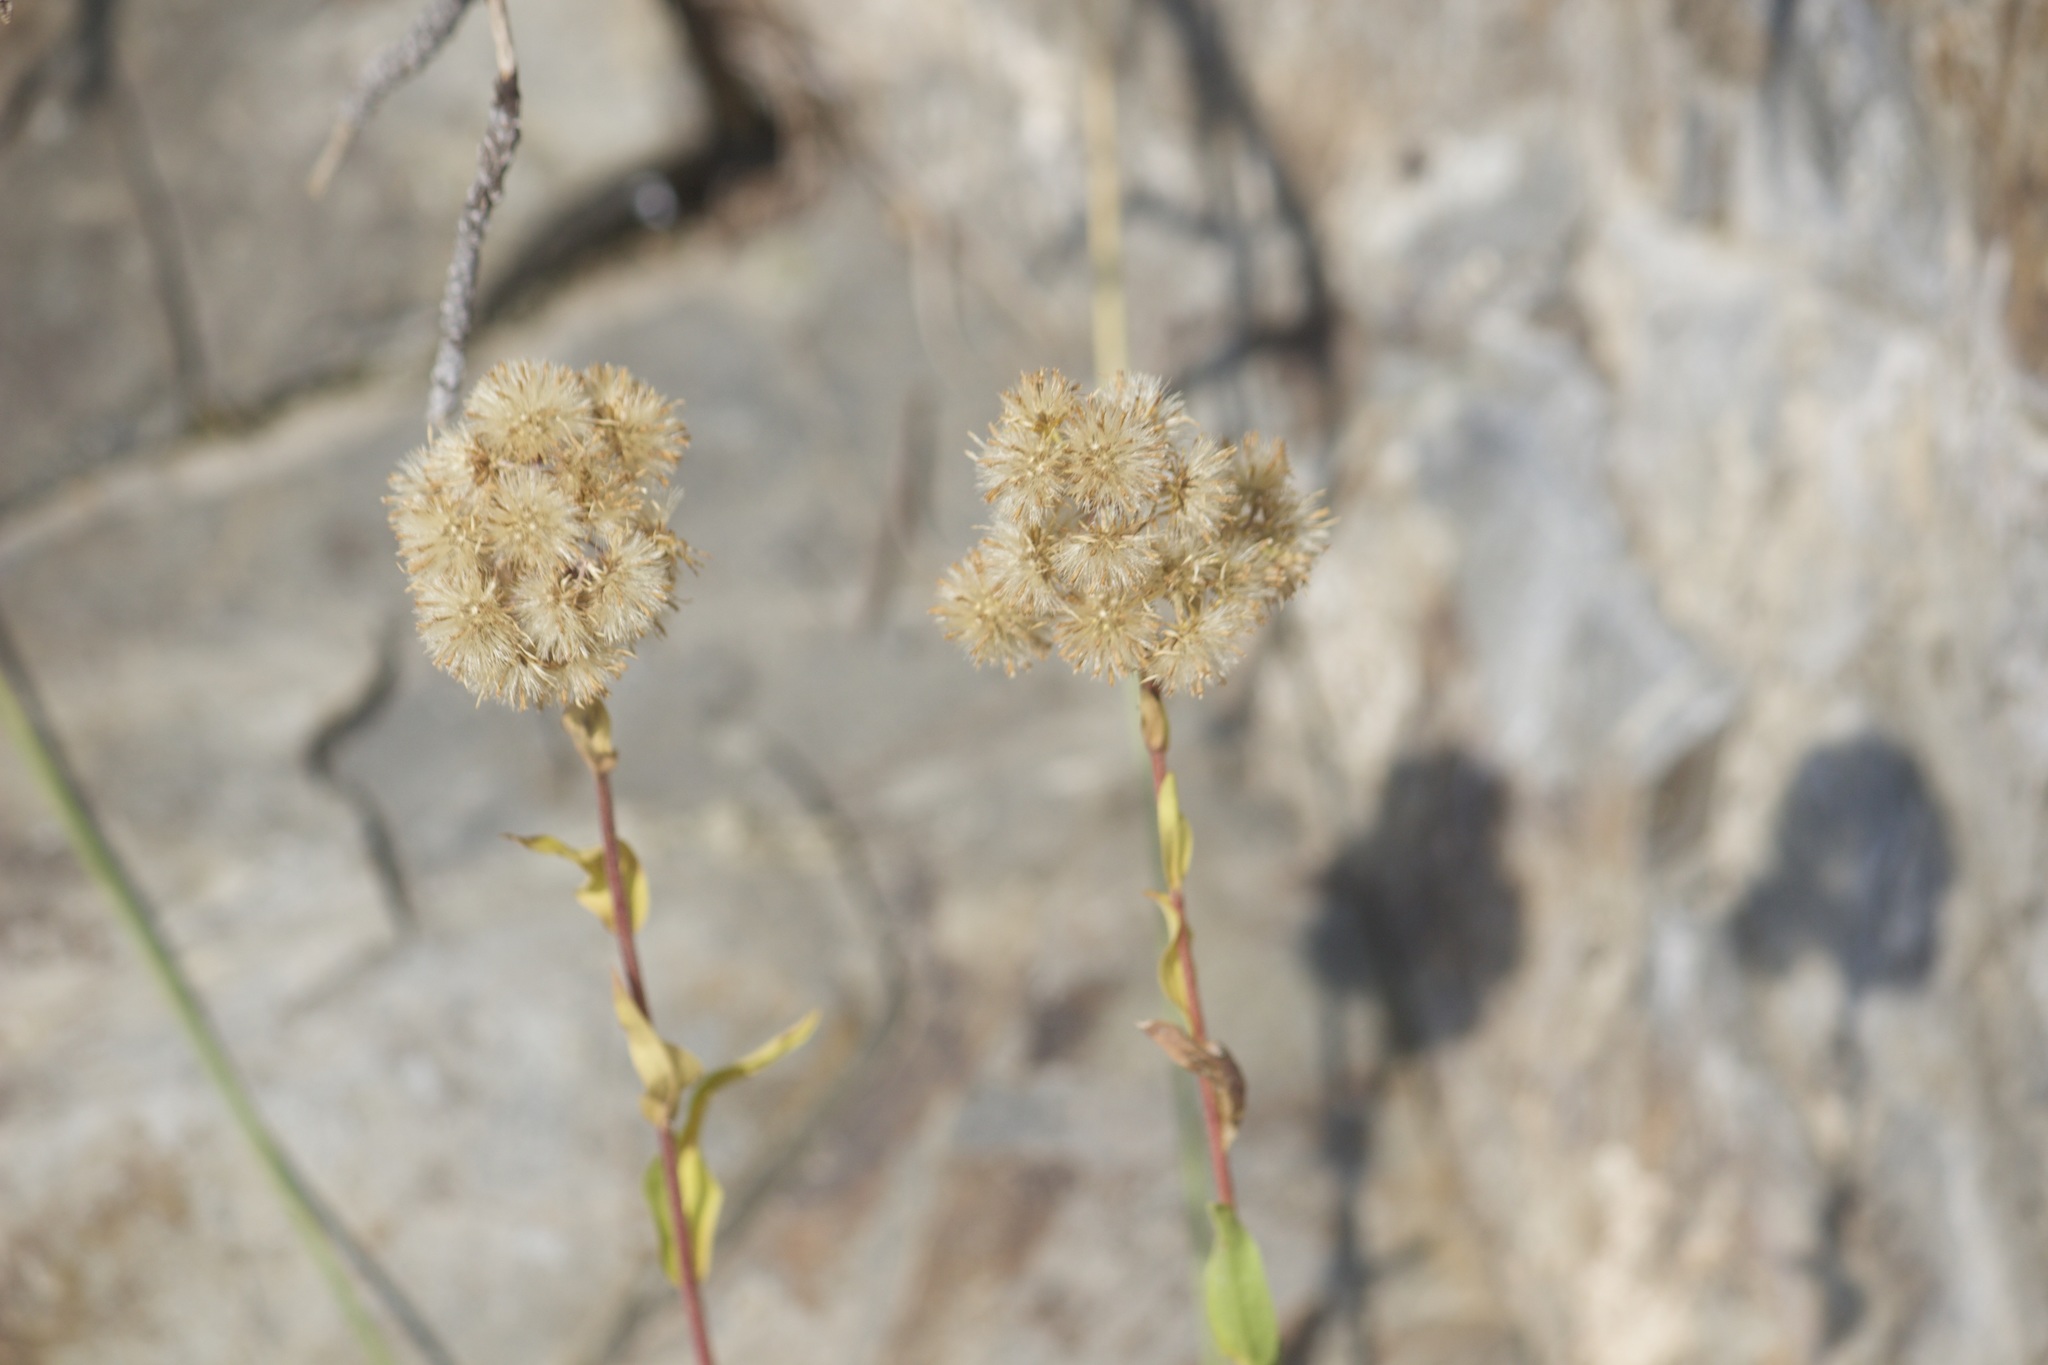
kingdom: Plantae
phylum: Tracheophyta
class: Magnoliopsida
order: Asterales
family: Asteraceae
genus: Solidago
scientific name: Solidago multiradiata
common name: Northern goldenrod
